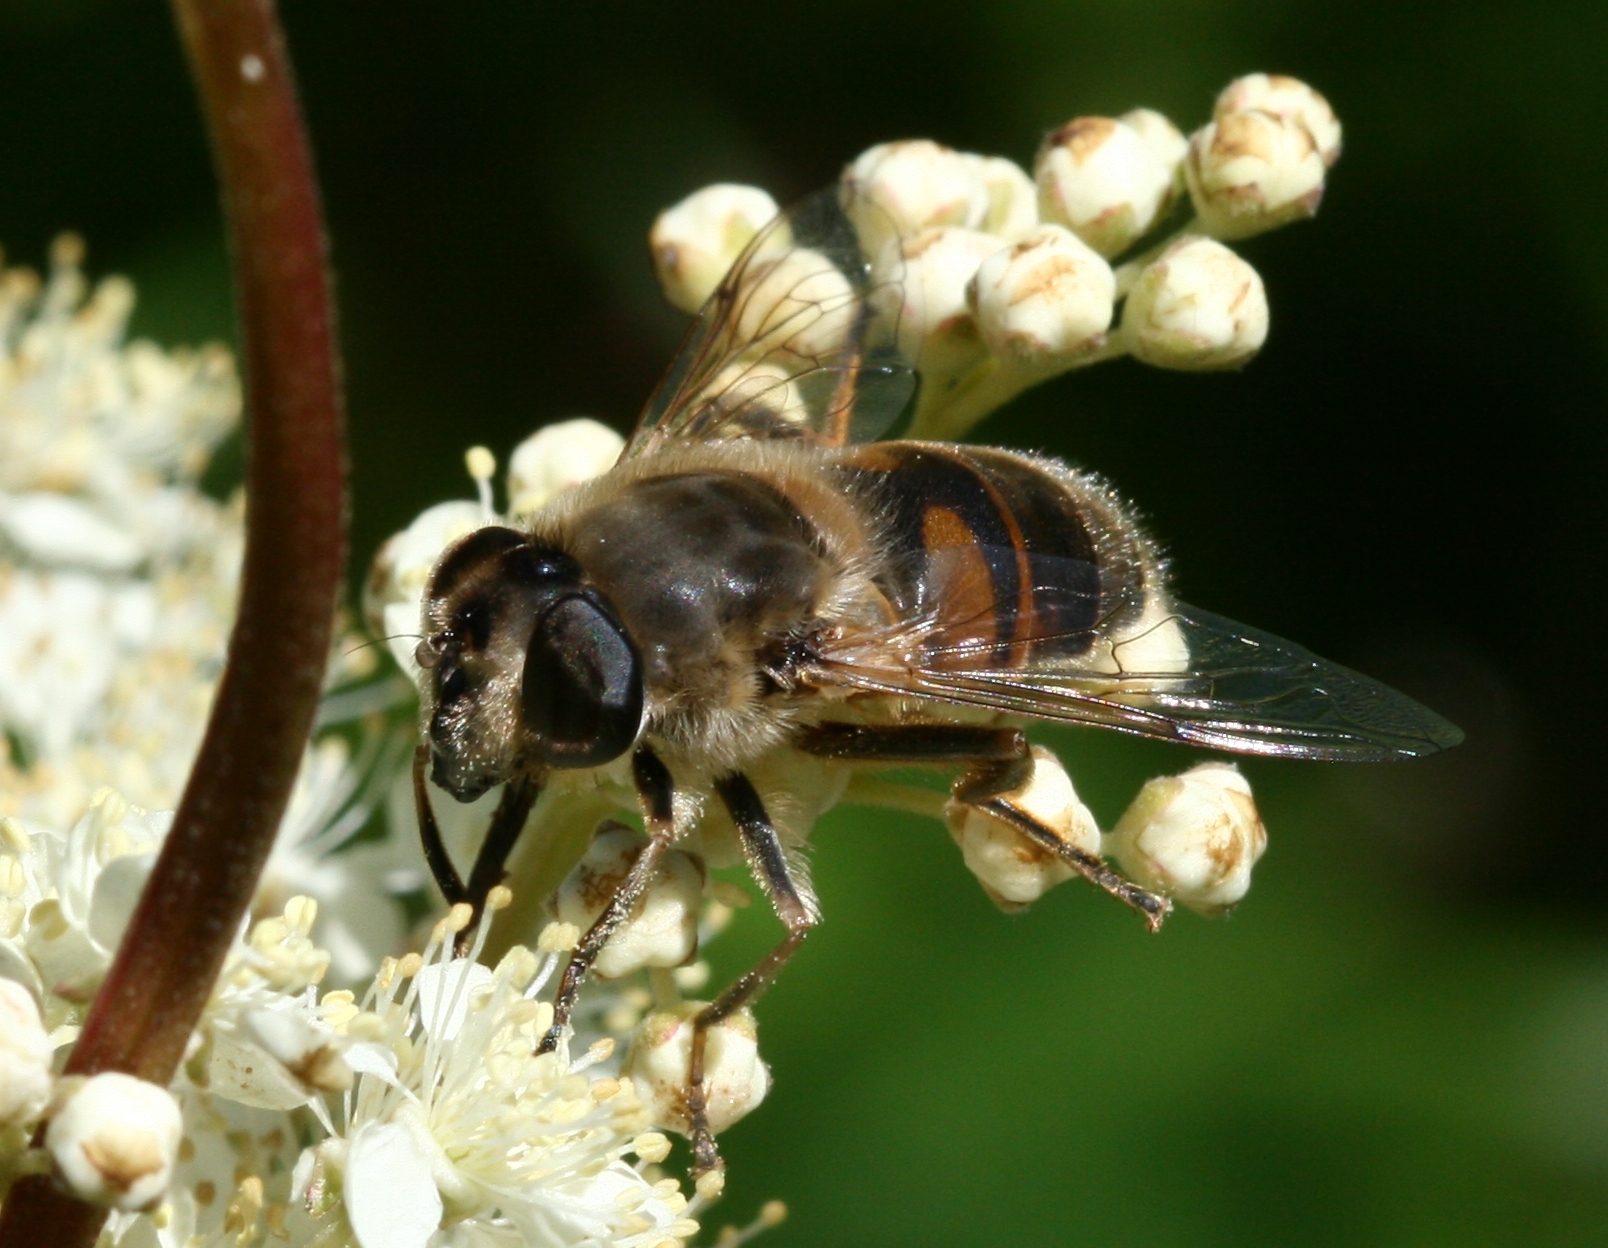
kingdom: Animalia
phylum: Arthropoda
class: Insecta
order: Diptera
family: Syrphidae
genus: Eristalis
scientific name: Eristalis tenax
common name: Drone fly
